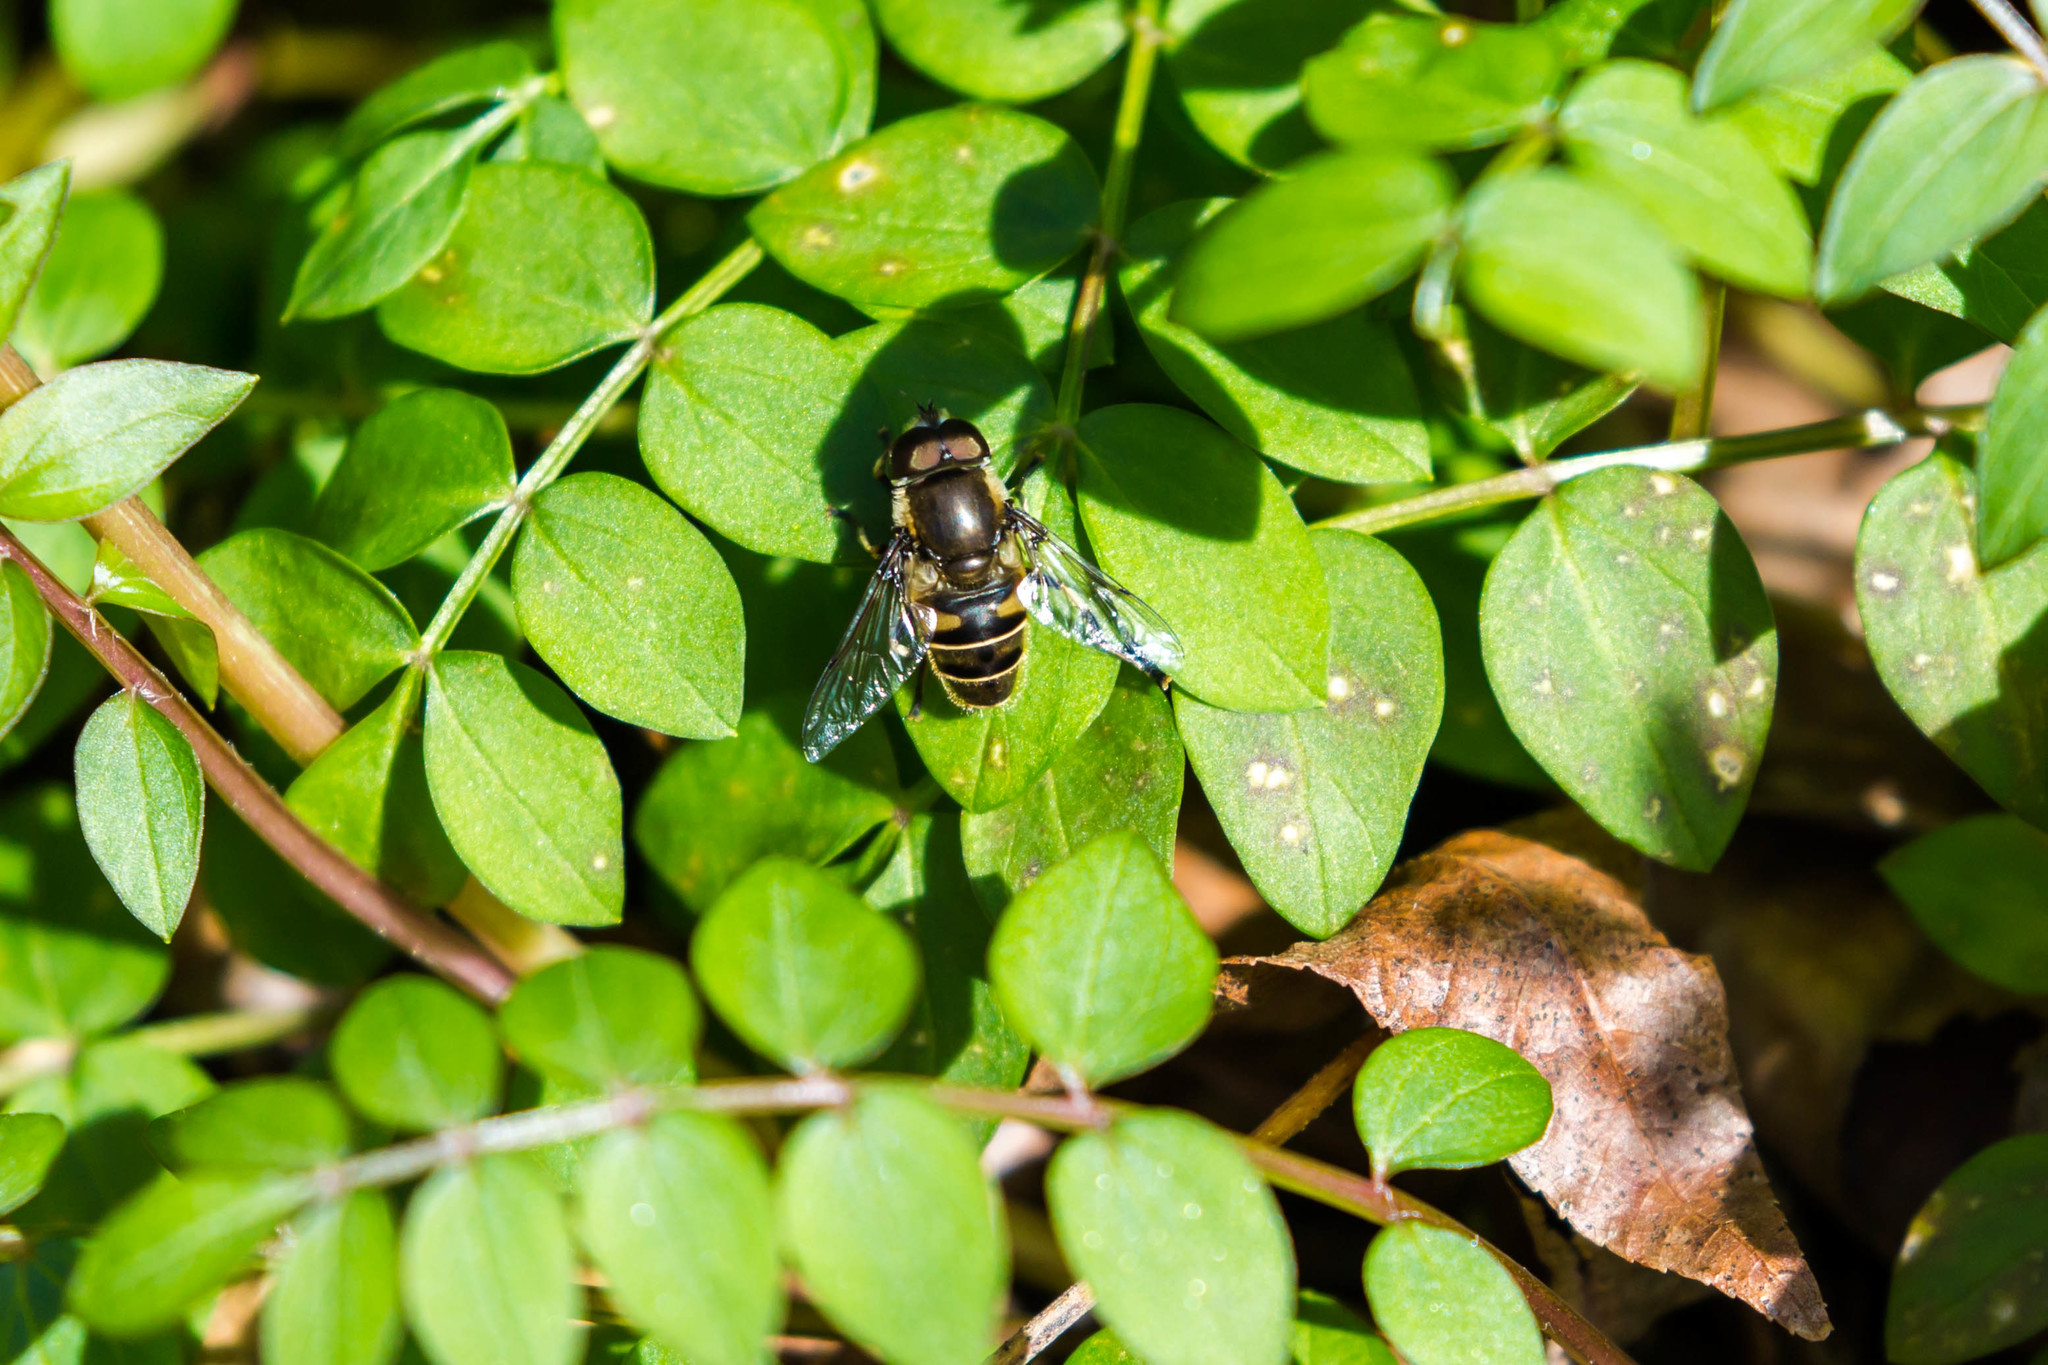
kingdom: Animalia
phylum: Arthropoda
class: Insecta
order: Diptera
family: Syrphidae
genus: Eristalis
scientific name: Eristalis dimidiata
